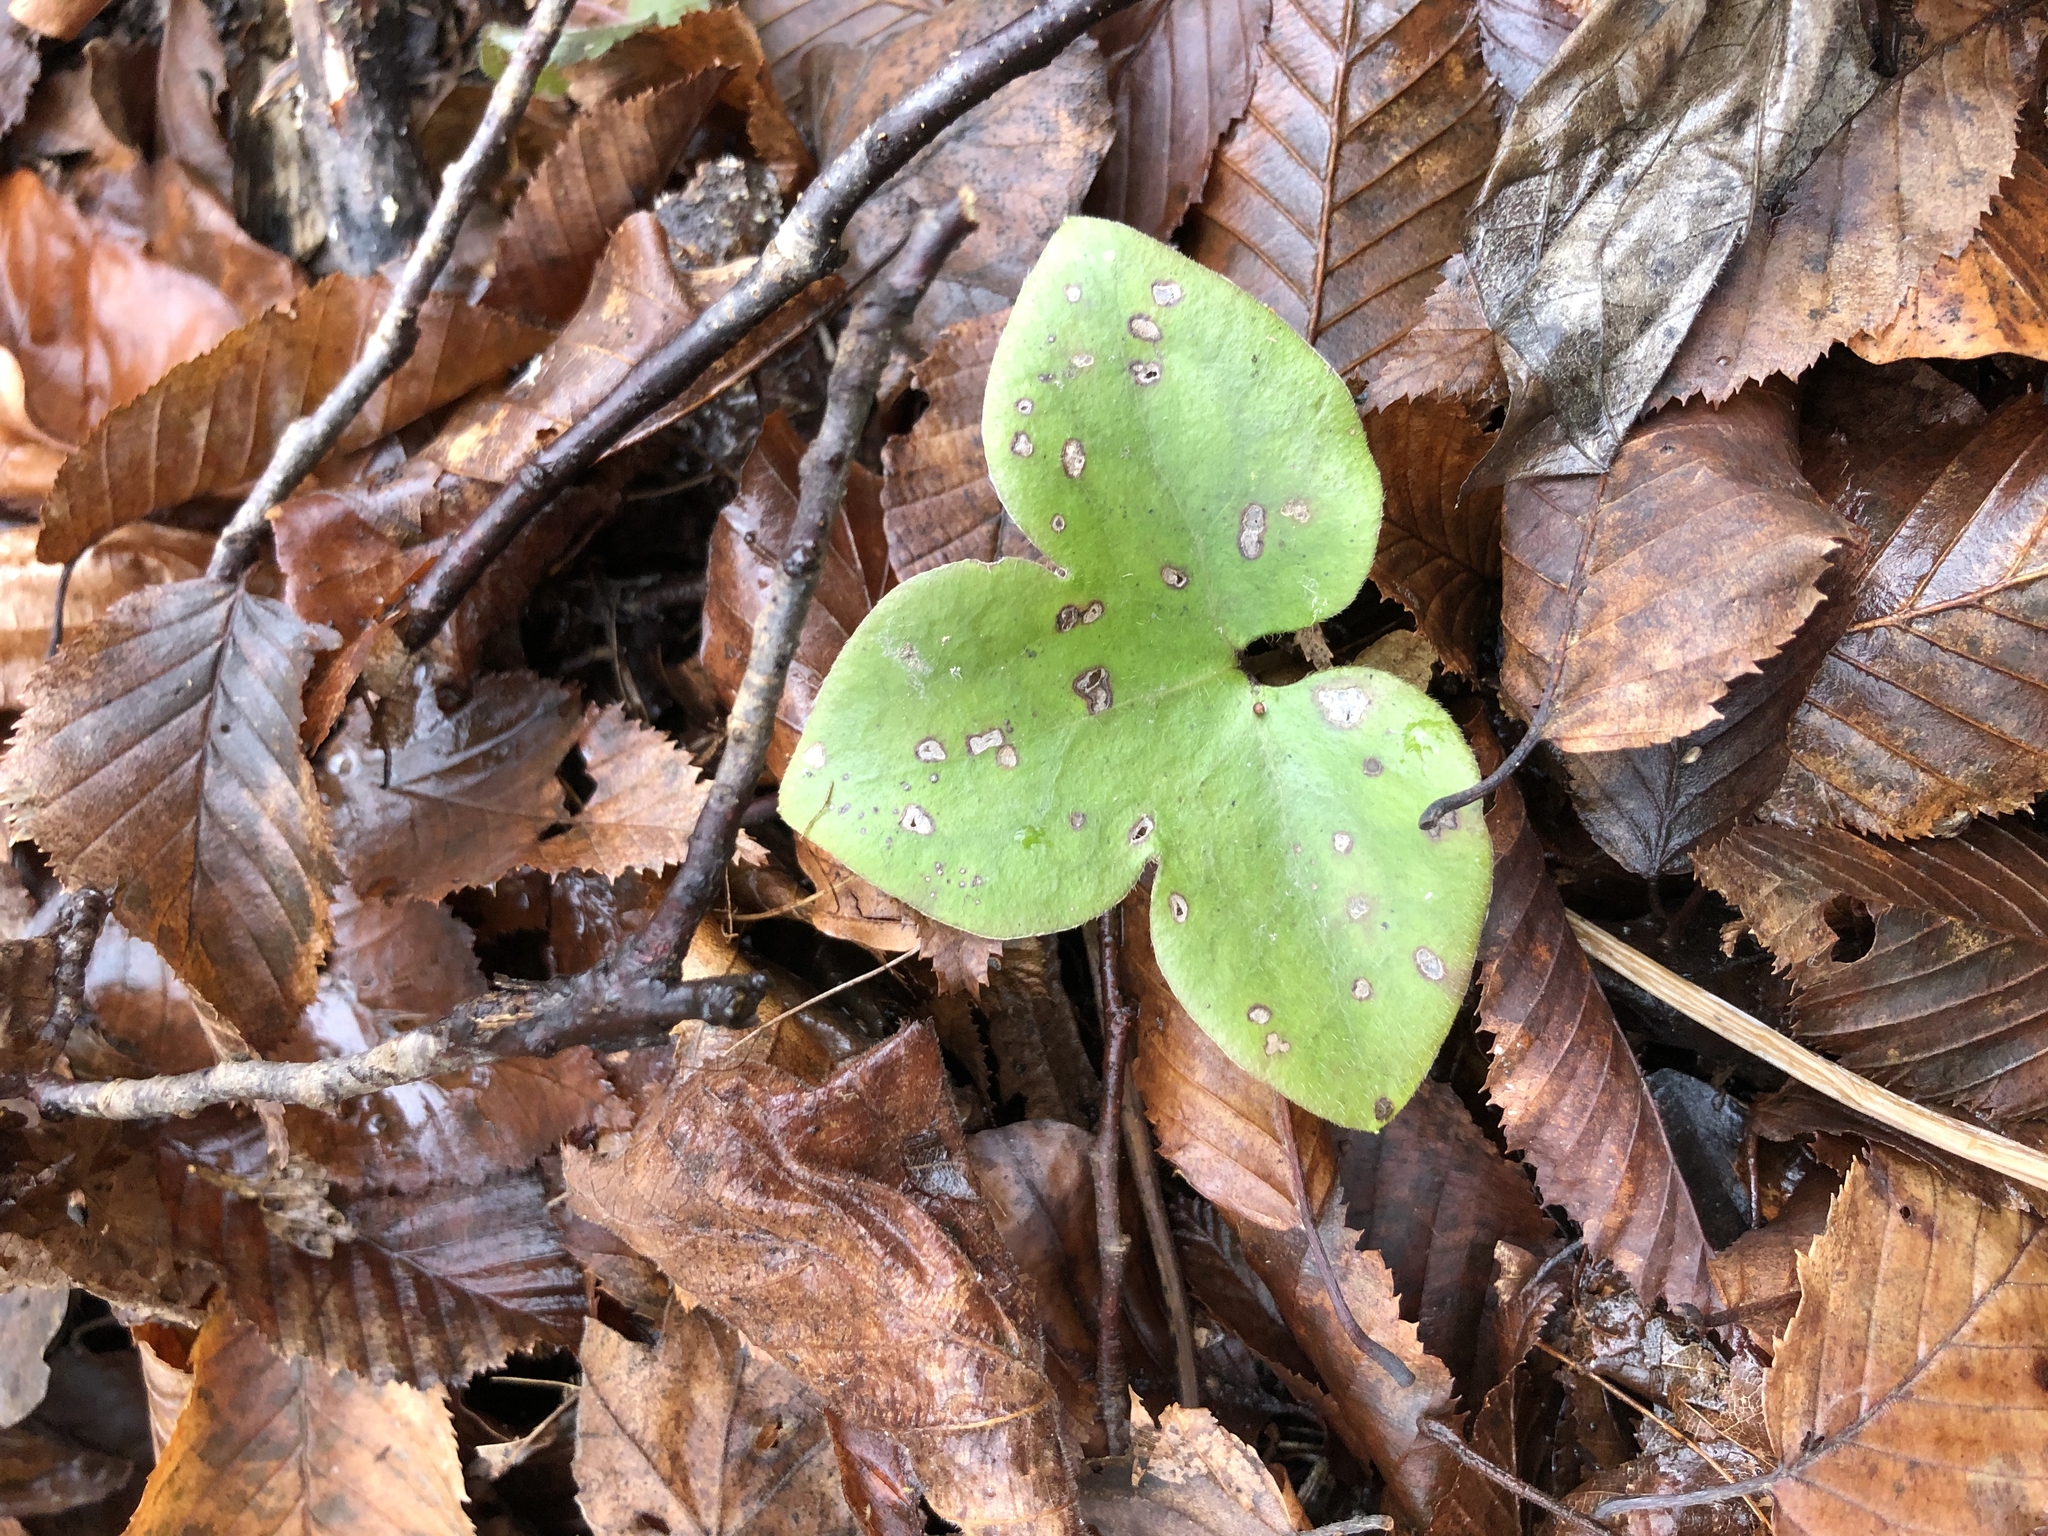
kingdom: Plantae
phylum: Tracheophyta
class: Magnoliopsida
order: Ranunculales
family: Ranunculaceae
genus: Hepatica
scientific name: Hepatica nobilis
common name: Liverleaf
